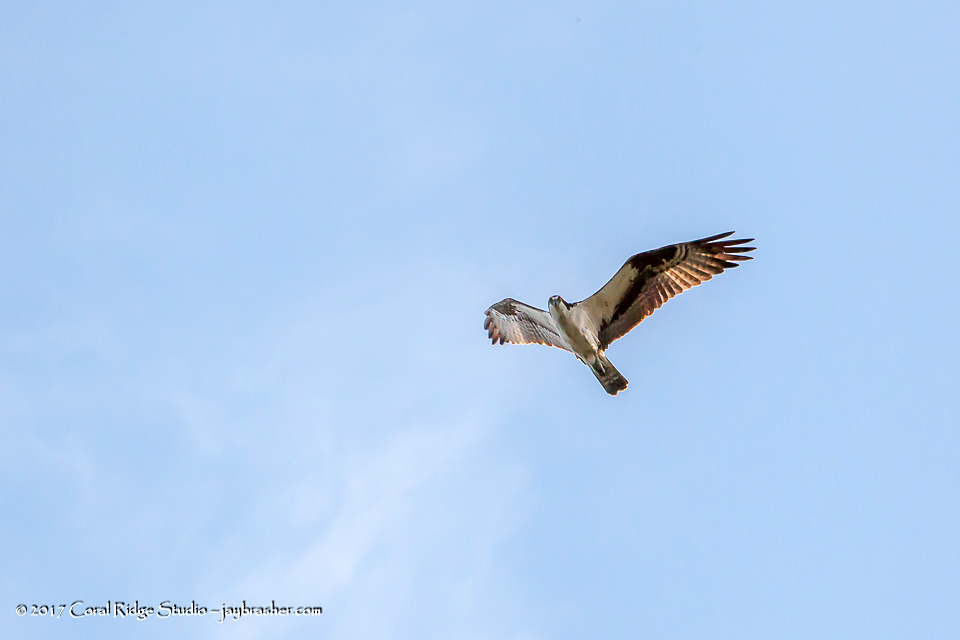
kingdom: Animalia
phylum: Chordata
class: Aves
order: Accipitriformes
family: Pandionidae
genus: Pandion
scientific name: Pandion haliaetus
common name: Osprey
